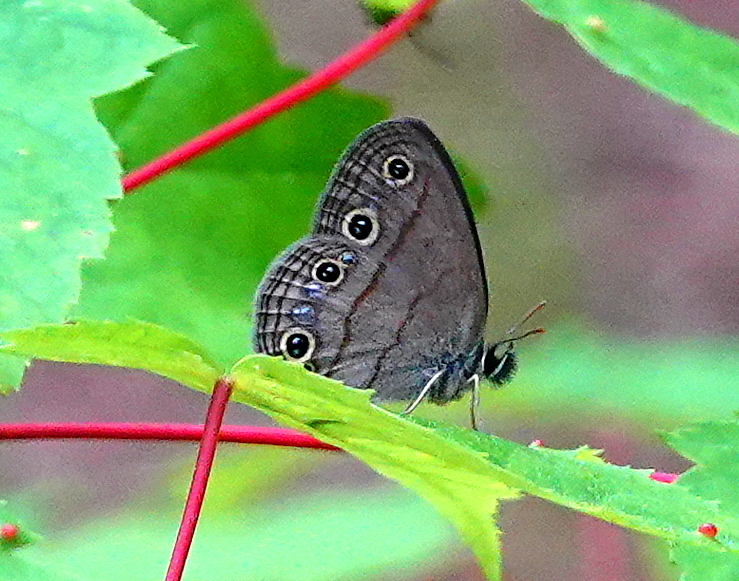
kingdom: Animalia
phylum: Arthropoda
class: Insecta
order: Lepidoptera
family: Nymphalidae
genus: Euptychia
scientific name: Euptychia cymela
